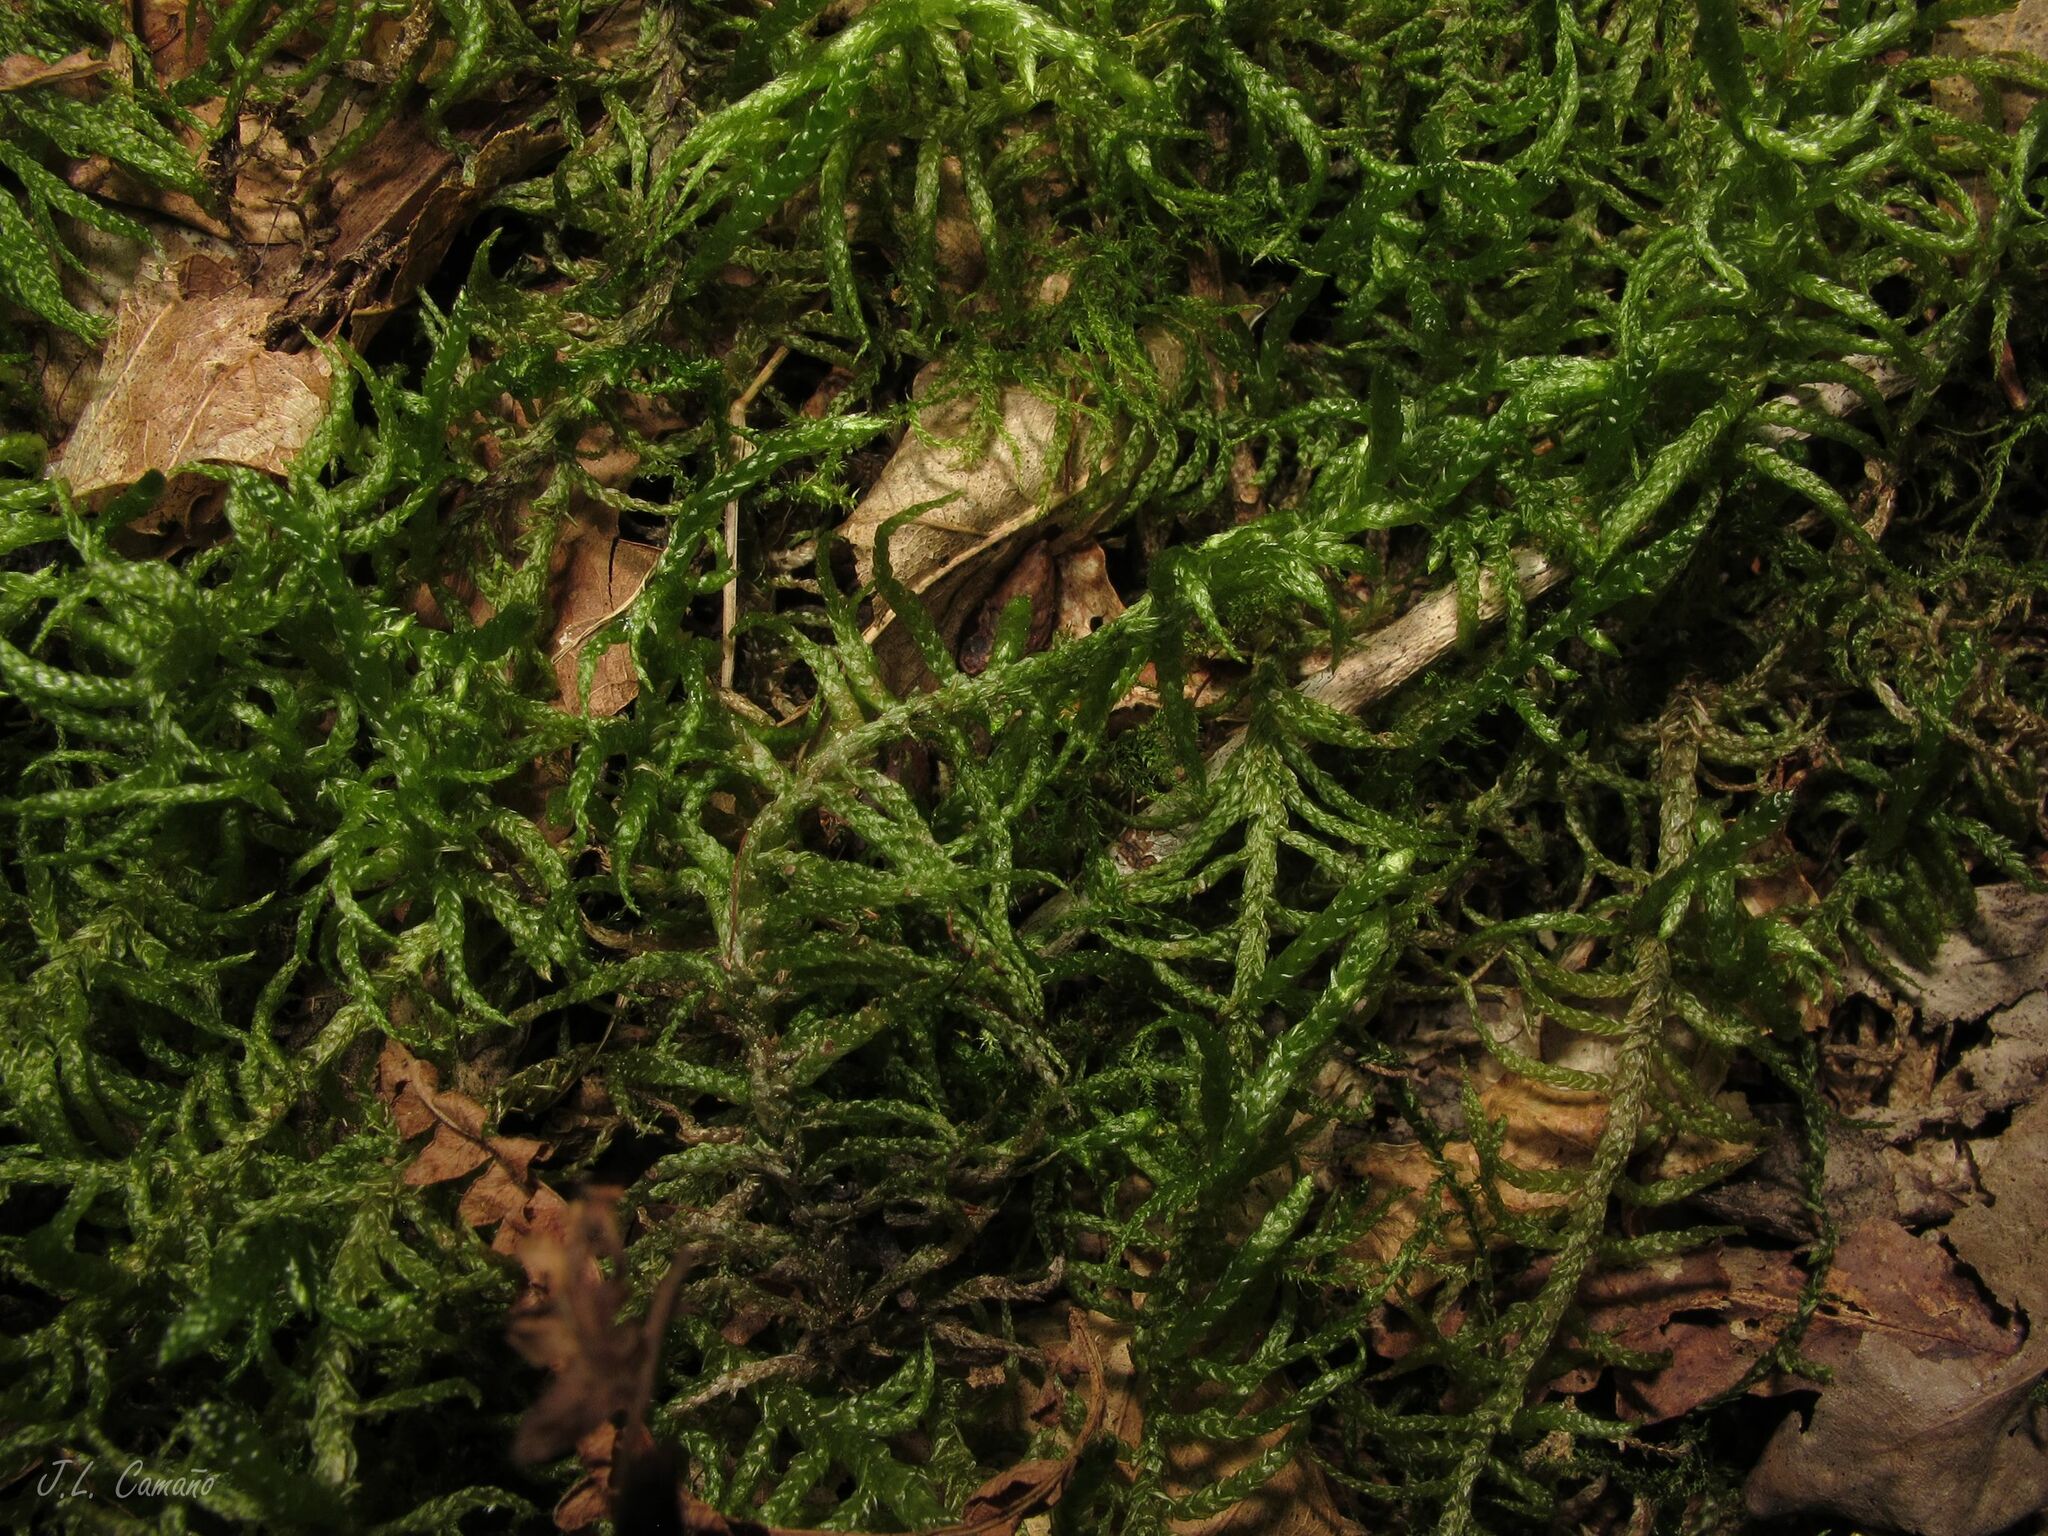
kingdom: Plantae
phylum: Bryophyta
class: Bryopsida
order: Hypnales
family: Brachytheciaceae
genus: Pseudoscleropodium
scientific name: Pseudoscleropodium purum
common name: Neat feather-moss
